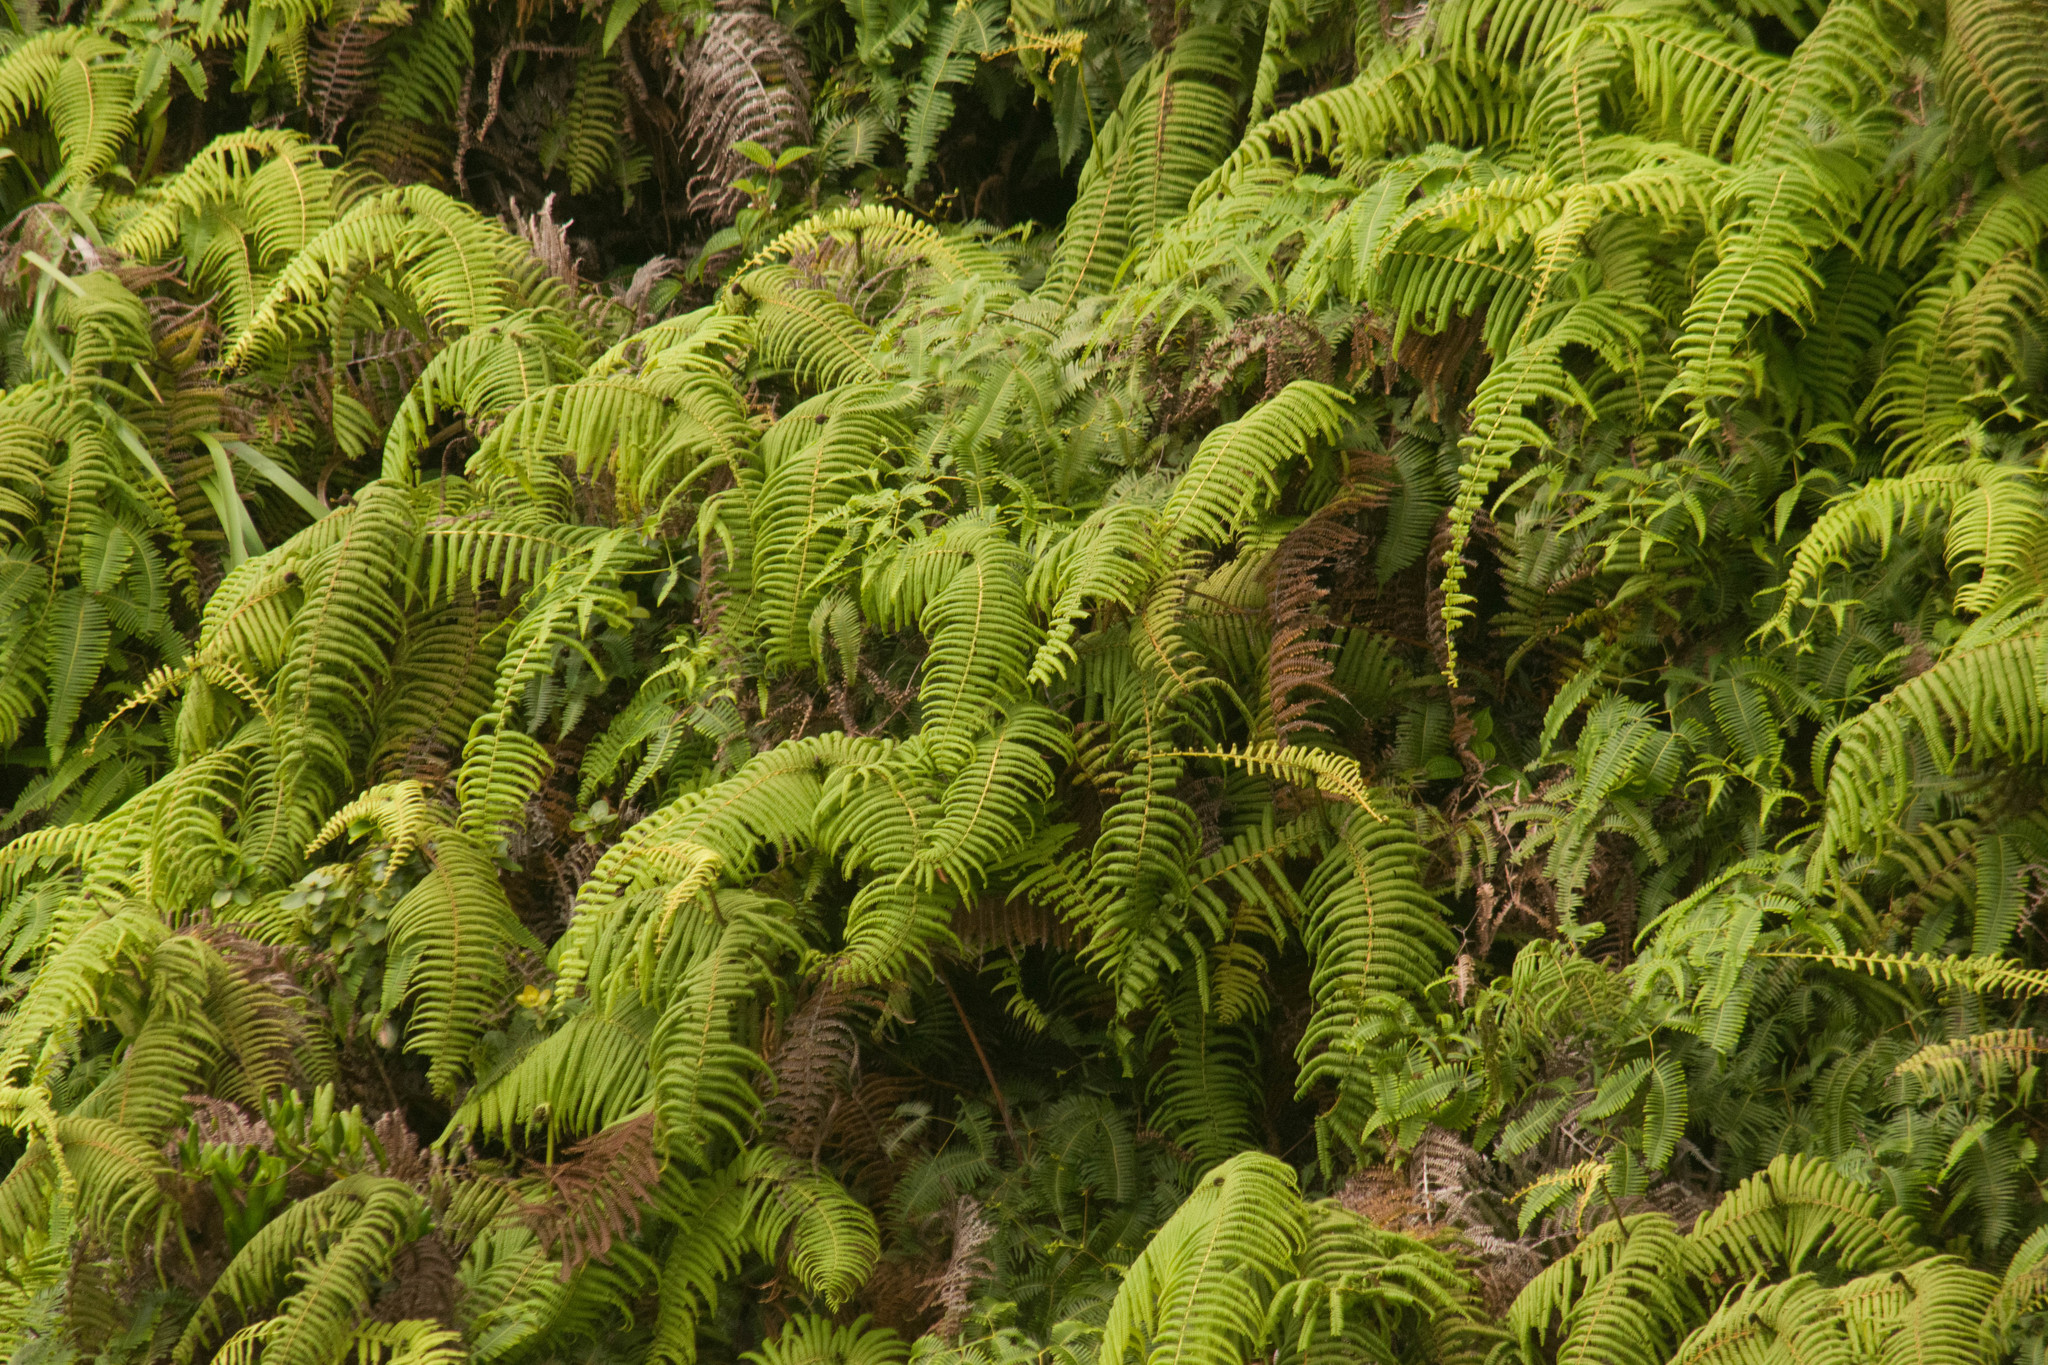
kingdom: Plantae
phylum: Tracheophyta
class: Polypodiopsida
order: Gleicheniales
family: Gleicheniaceae
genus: Diplopterygium
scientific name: Diplopterygium pinnatum
